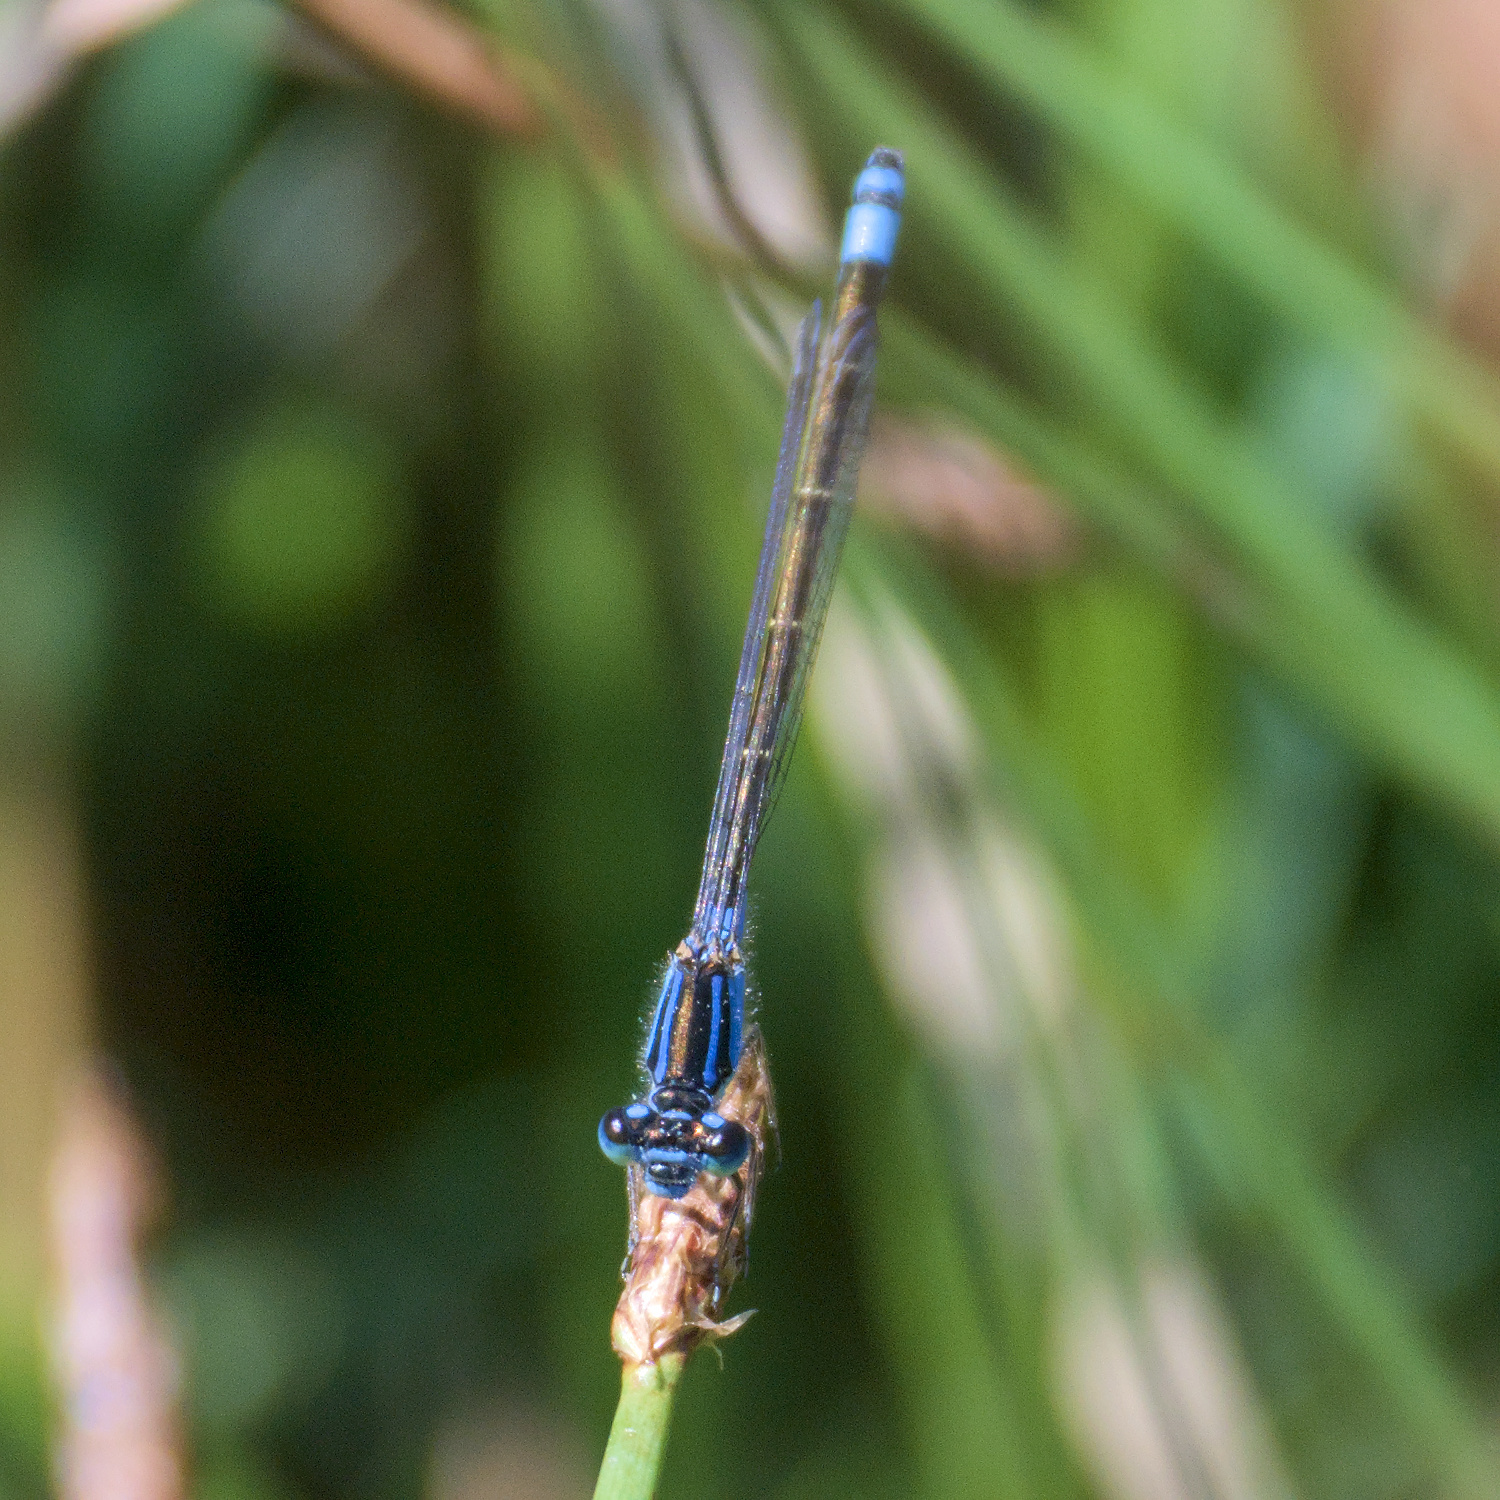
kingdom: Animalia
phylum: Arthropoda
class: Insecta
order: Odonata
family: Coenagrionidae
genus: Ischnura
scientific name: Ischnura heterosticta
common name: Common bluetail
